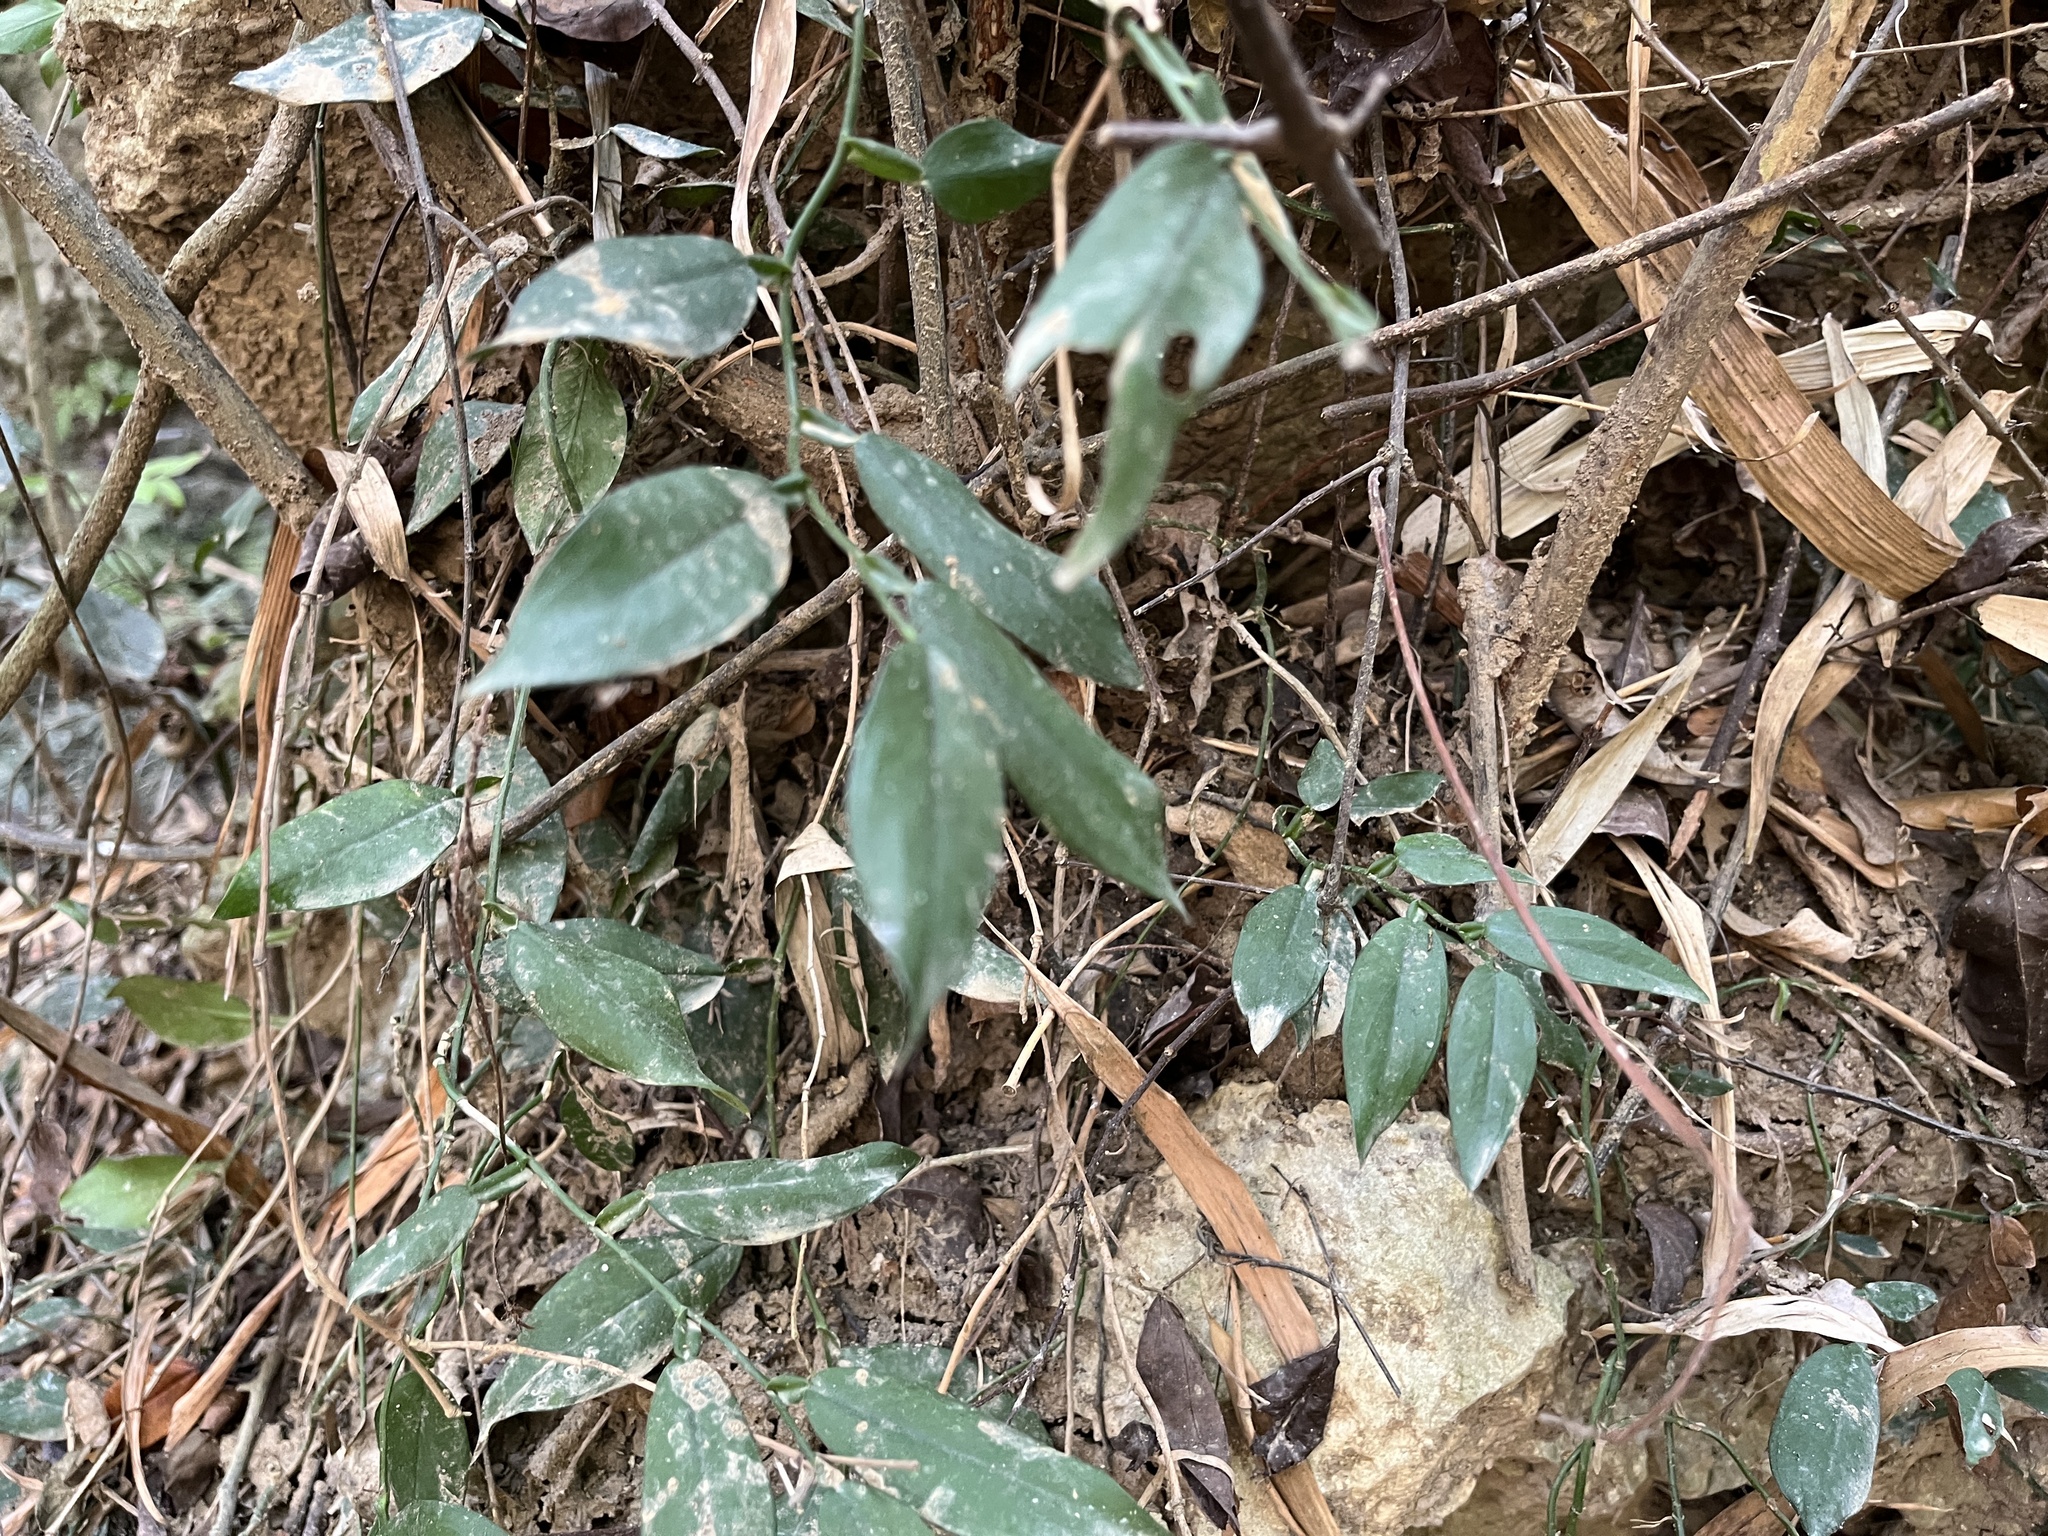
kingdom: Plantae
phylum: Tracheophyta
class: Liliopsida
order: Alismatales
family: Araceae
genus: Pothos
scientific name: Pothos chinensis
